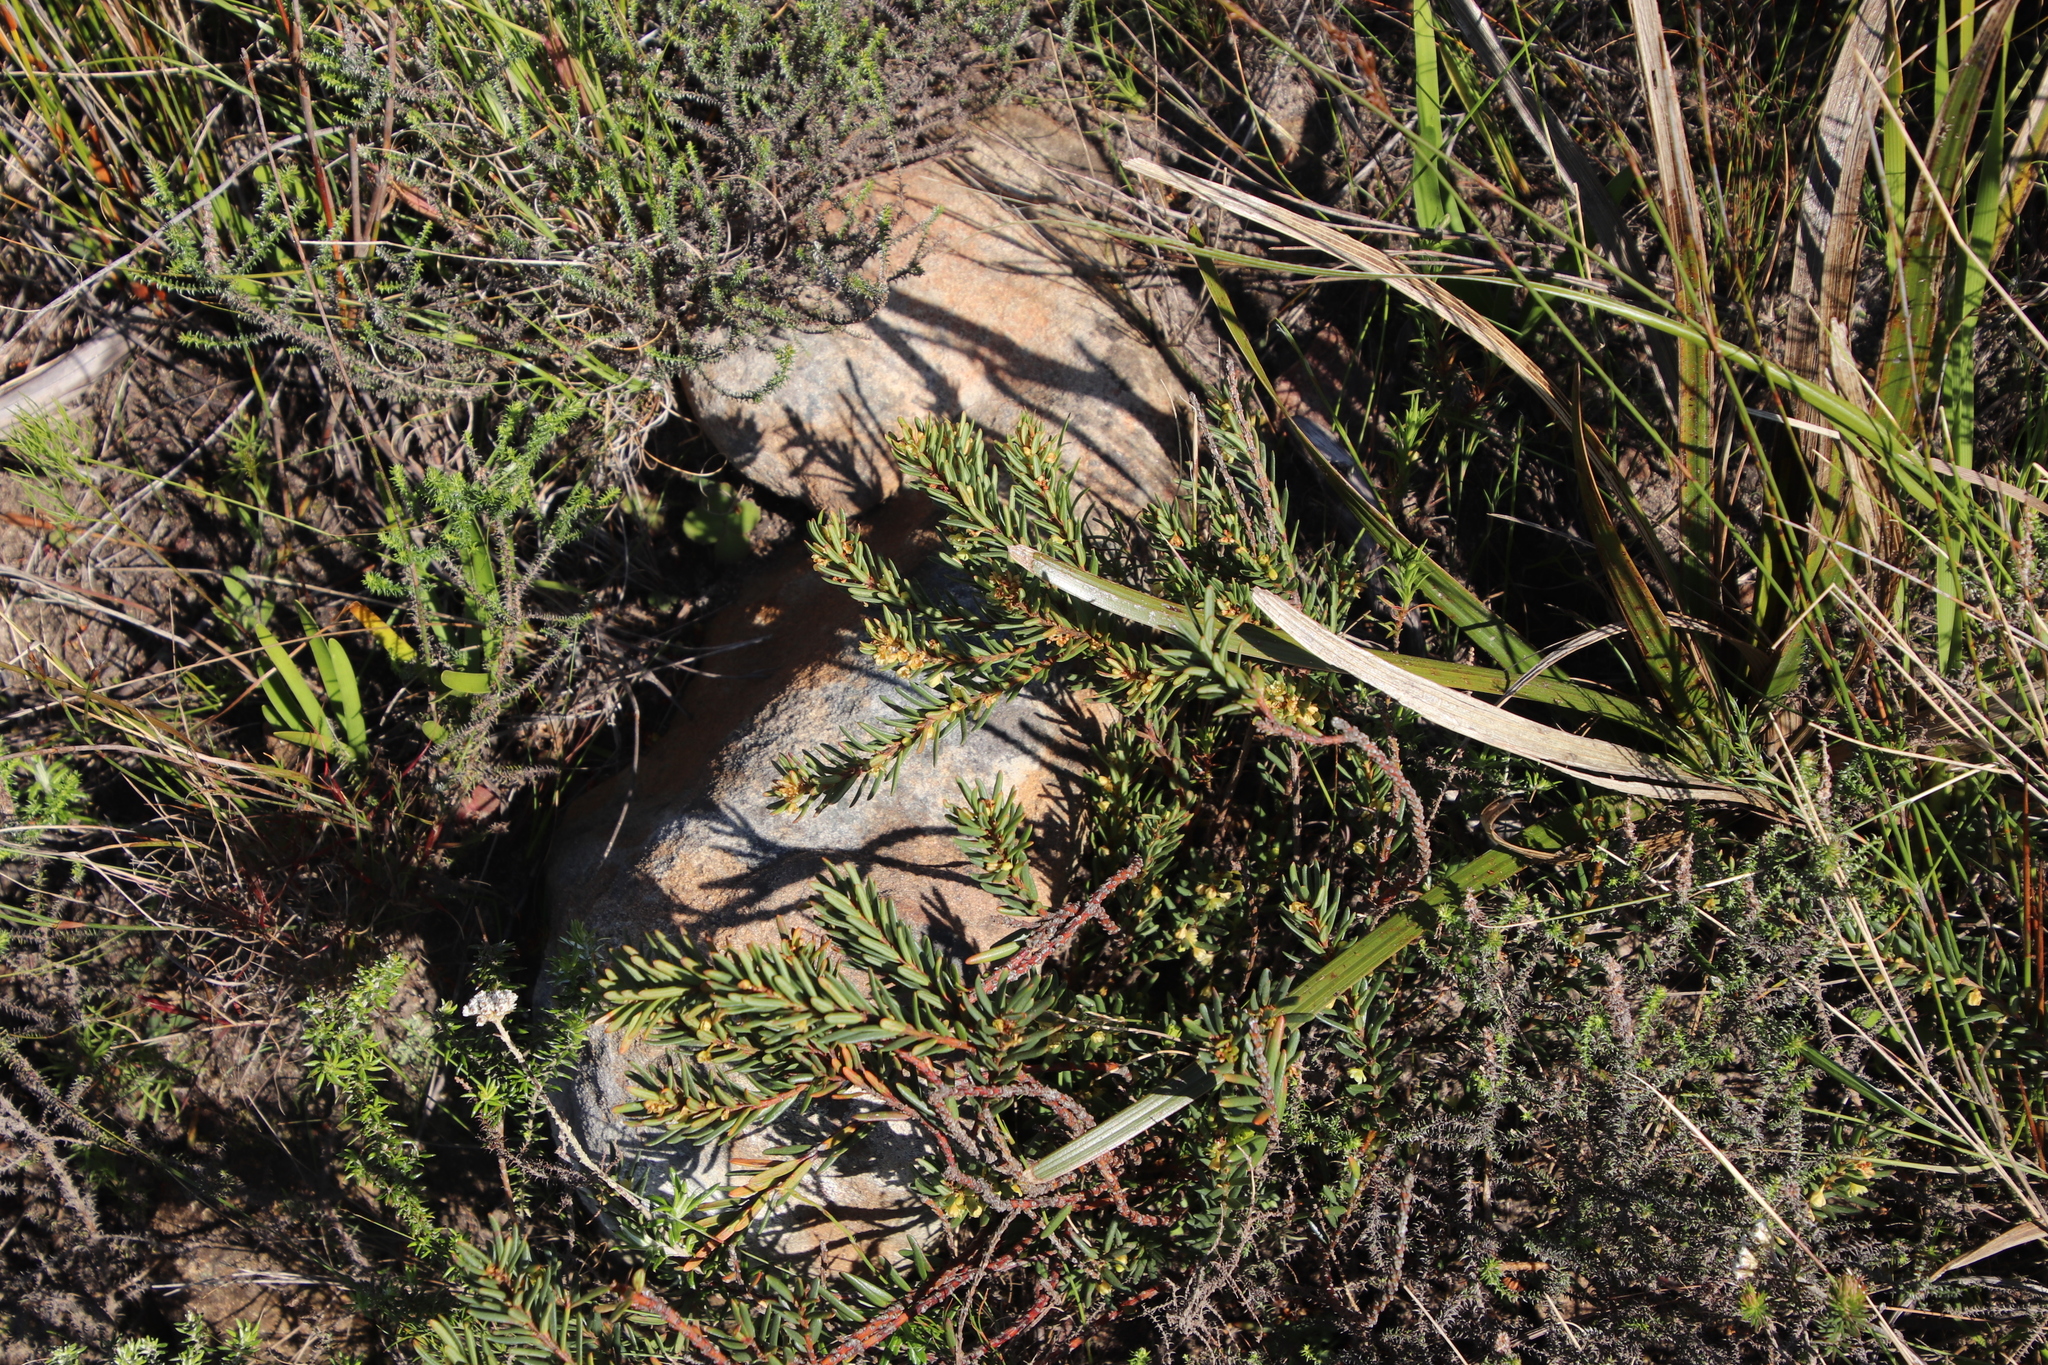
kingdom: Plantae
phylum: Tracheophyta
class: Magnoliopsida
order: Malpighiales
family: Peraceae
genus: Clutia
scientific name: Clutia polygonoides
